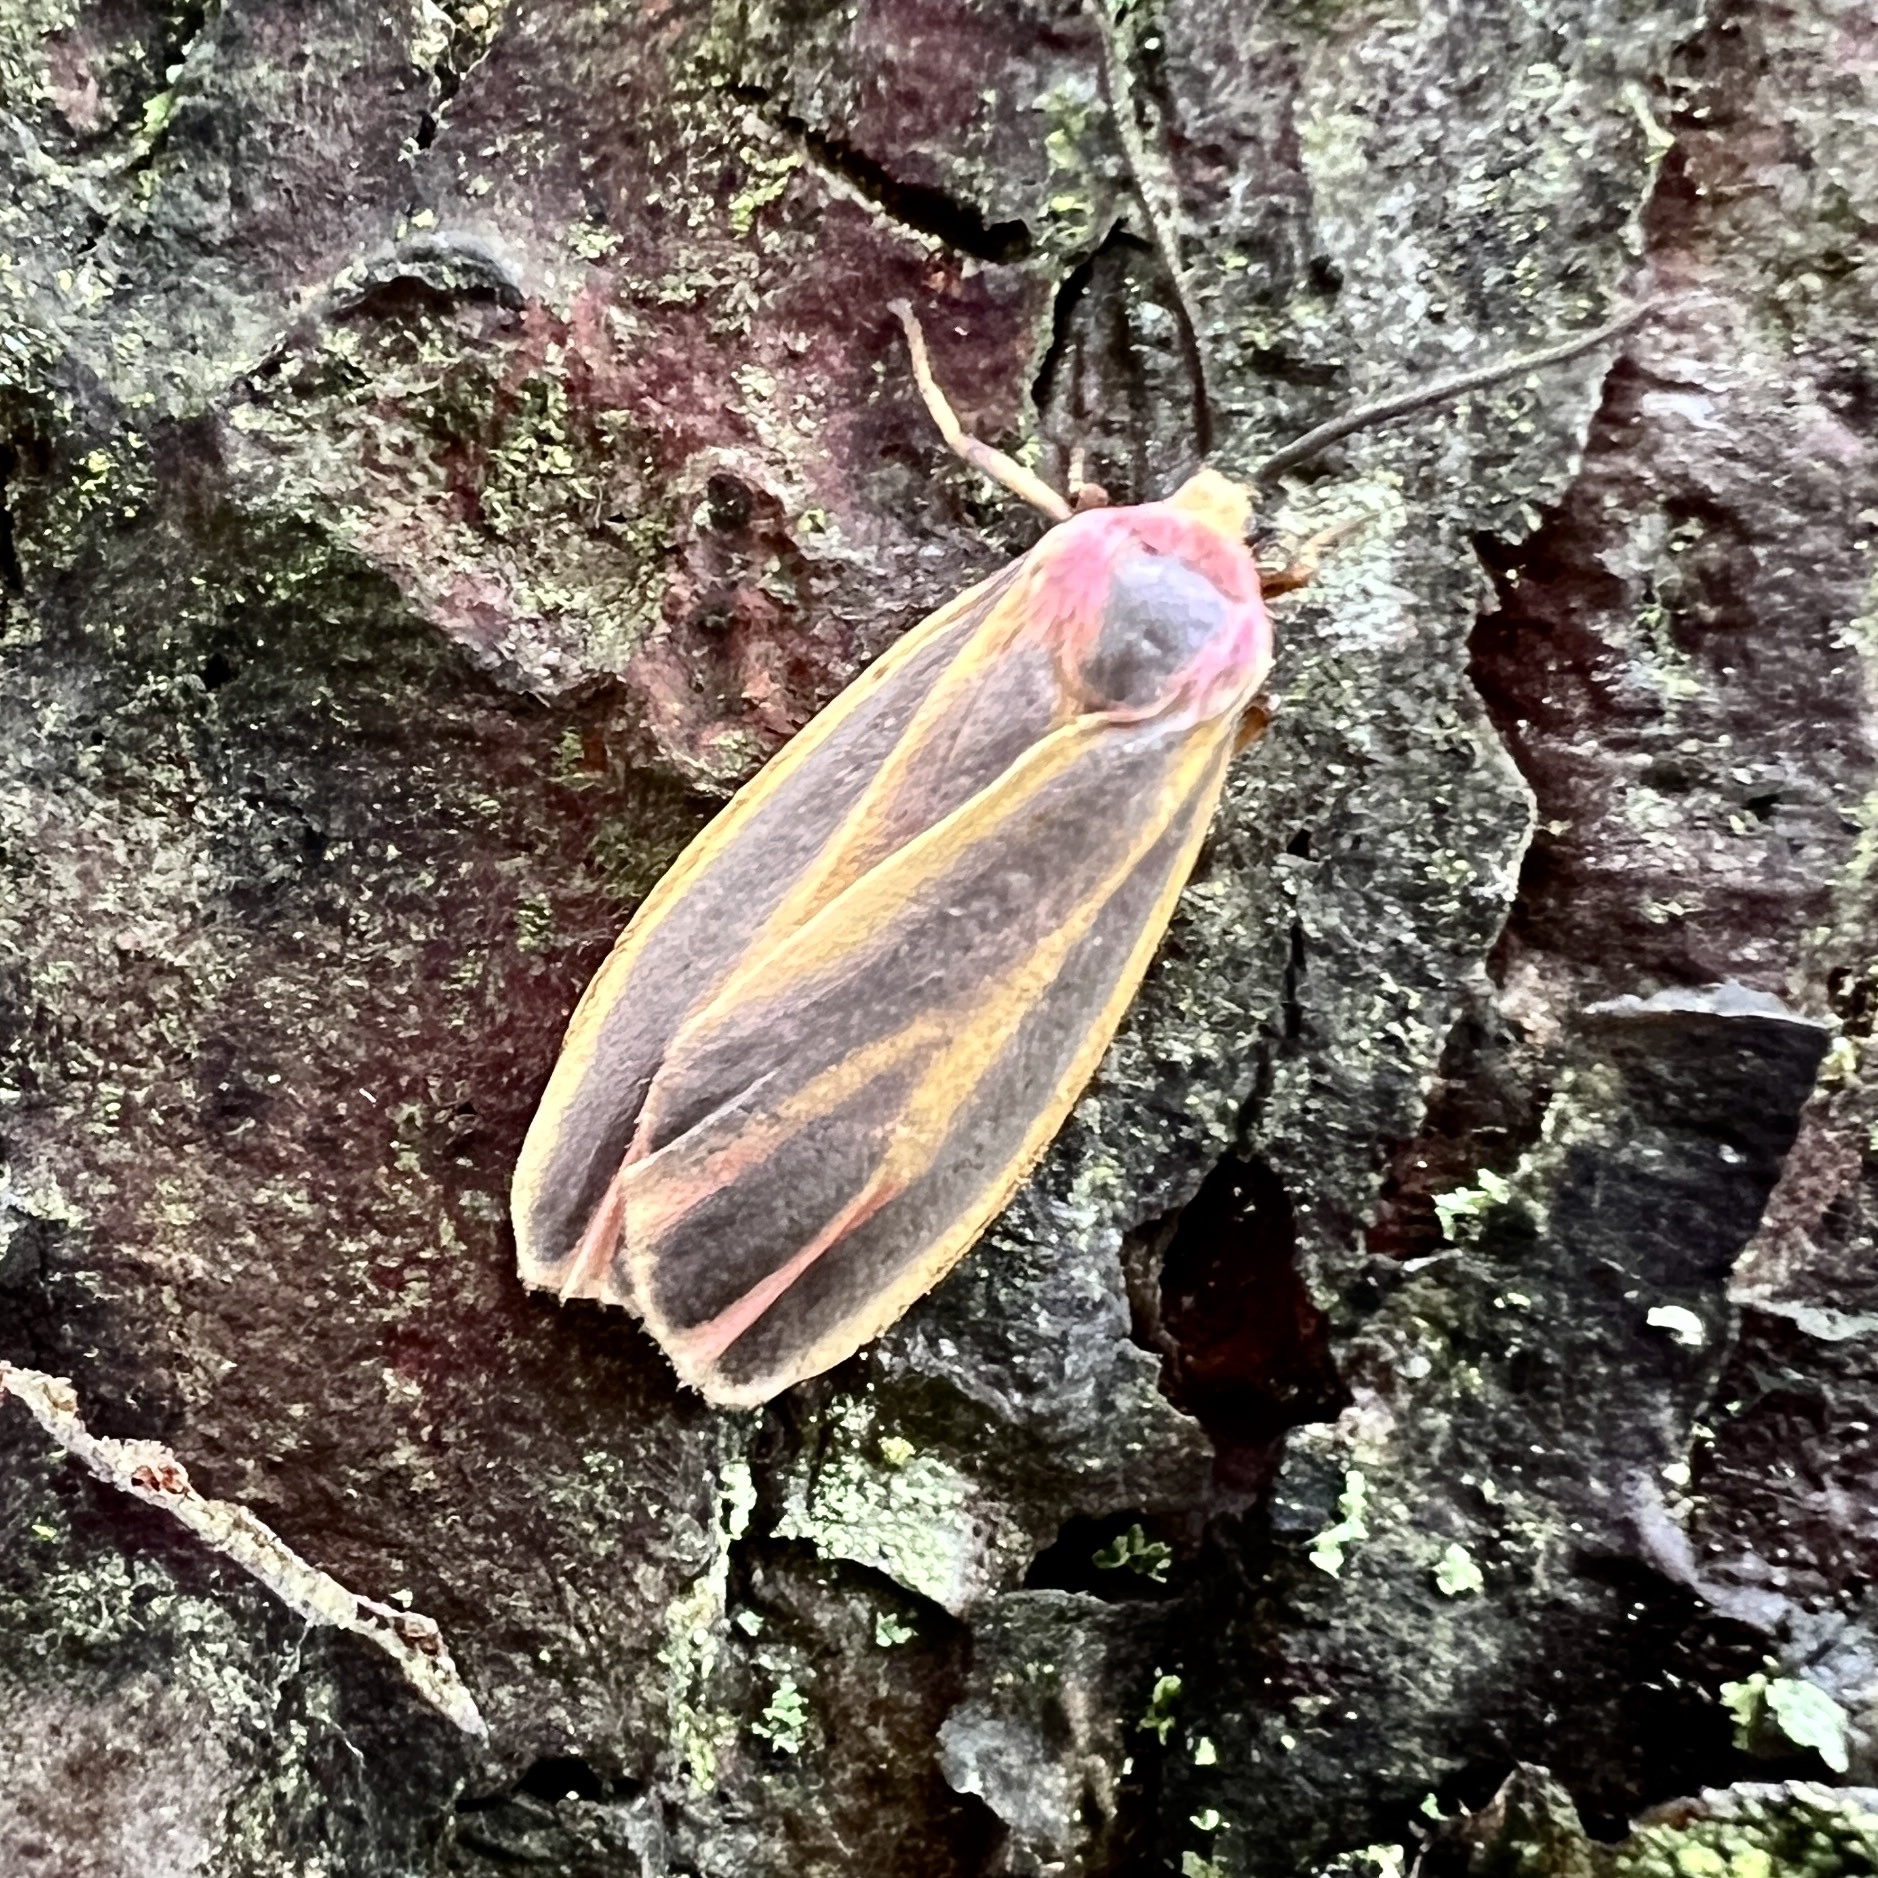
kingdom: Animalia
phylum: Arthropoda
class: Insecta
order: Lepidoptera
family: Erebidae
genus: Hypoprepia
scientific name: Hypoprepia fucosa
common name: Painted lichen moth
